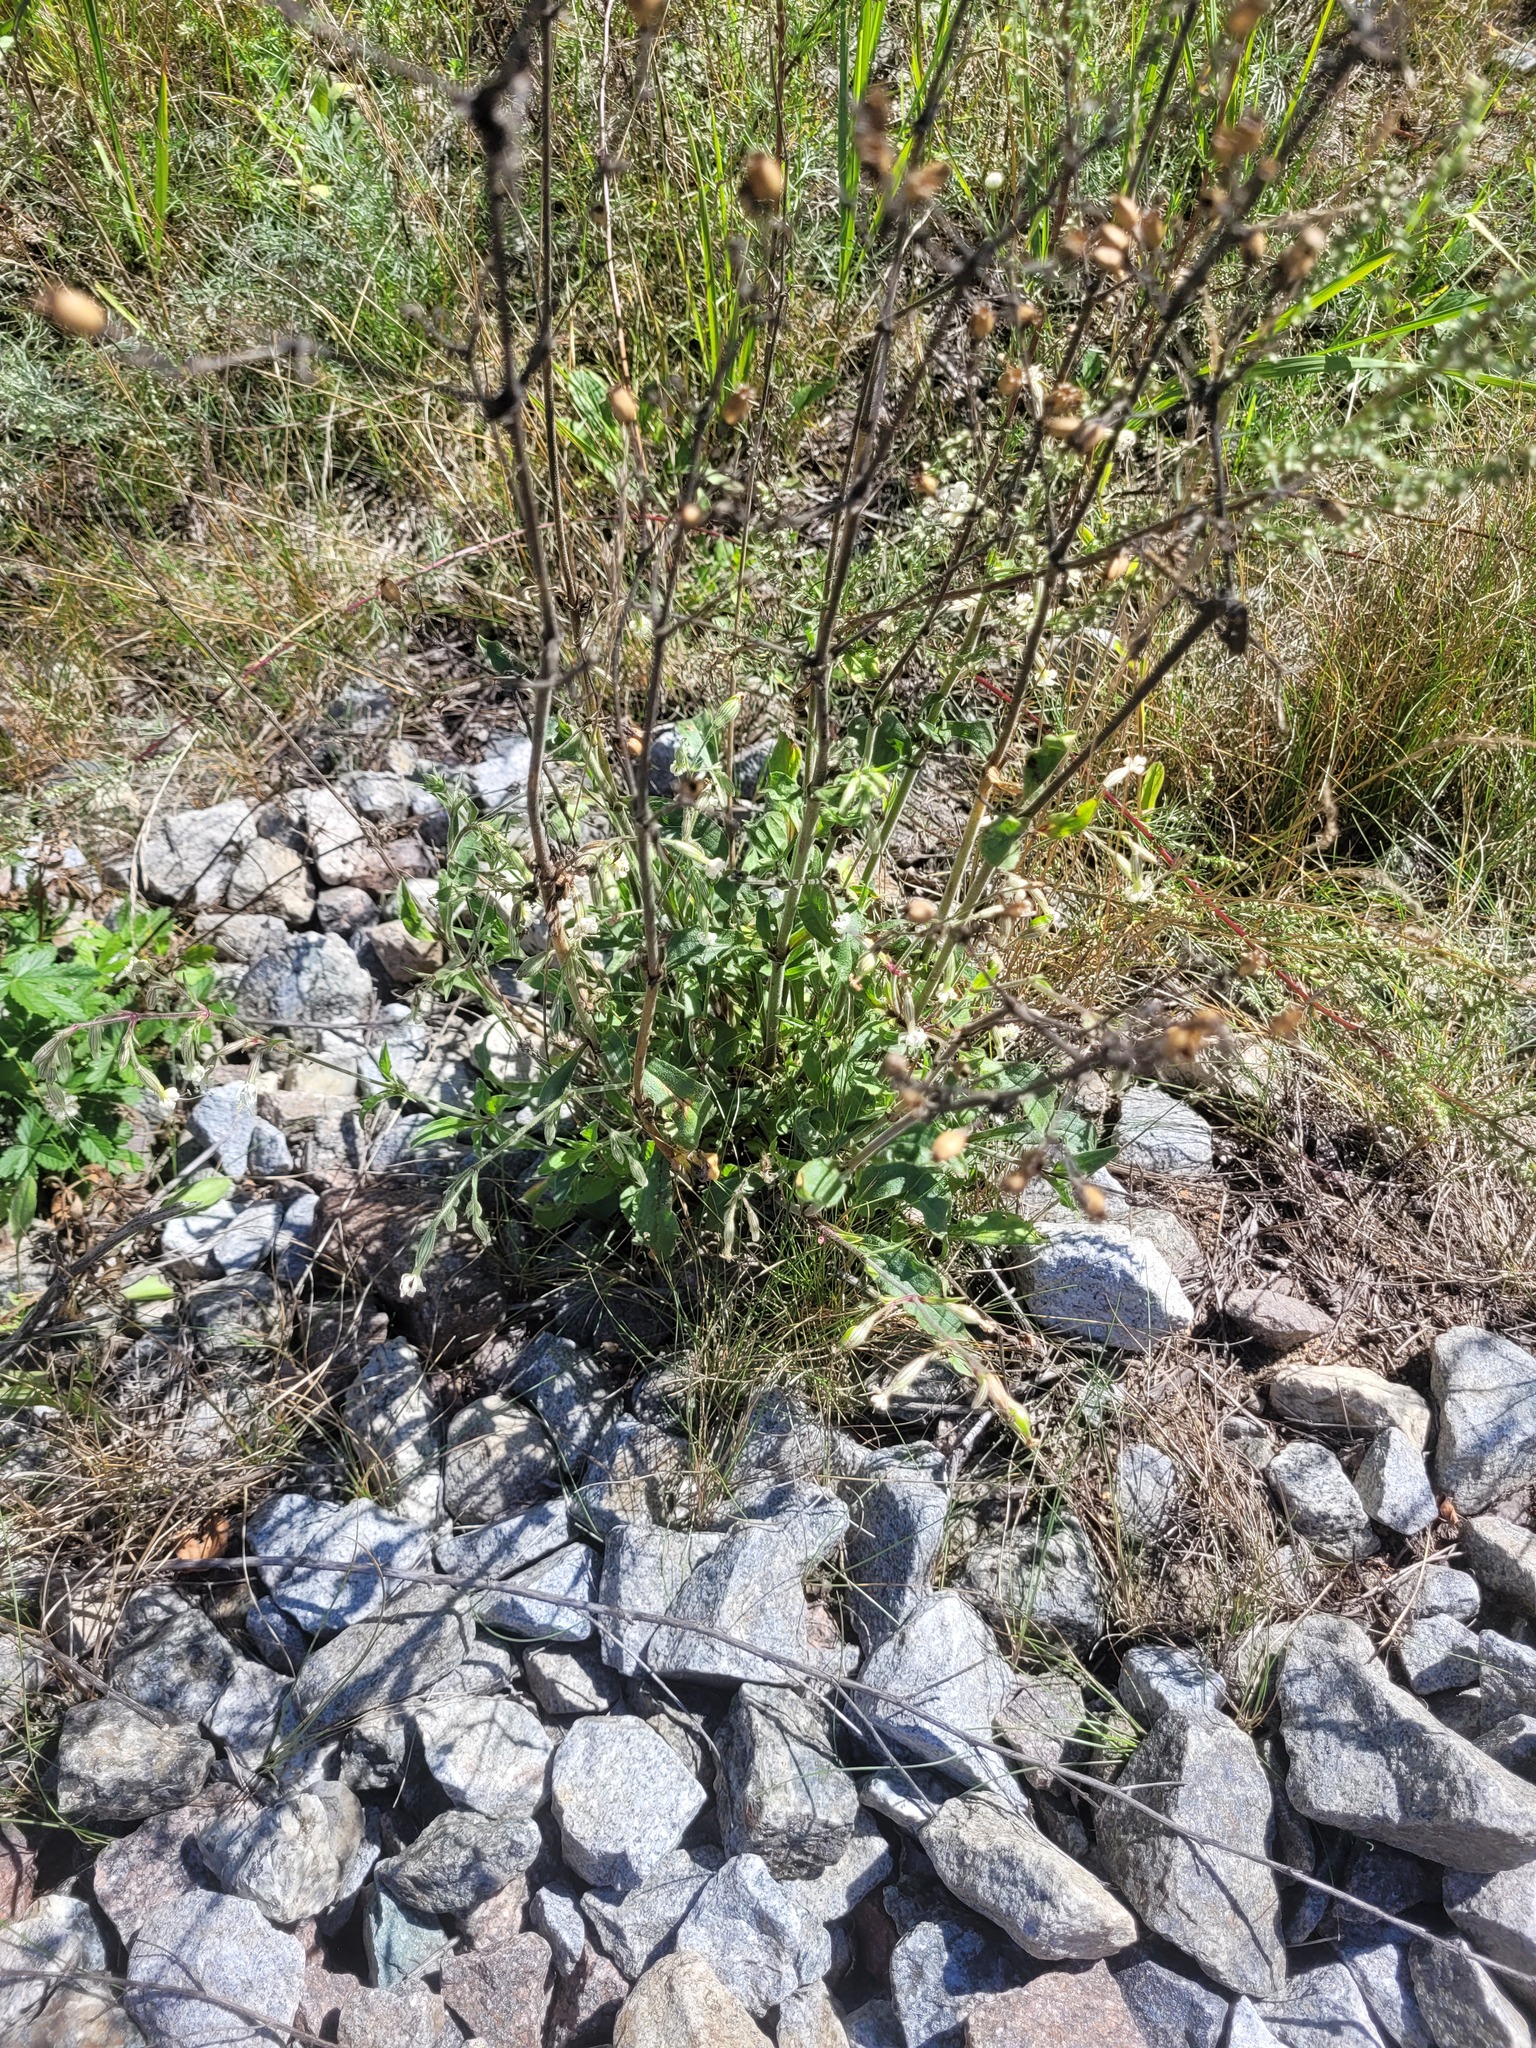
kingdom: Plantae
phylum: Tracheophyta
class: Magnoliopsida
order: Caryophyllales
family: Caryophyllaceae
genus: Silene
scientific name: Silene nutans
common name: Nottingham catchfly
